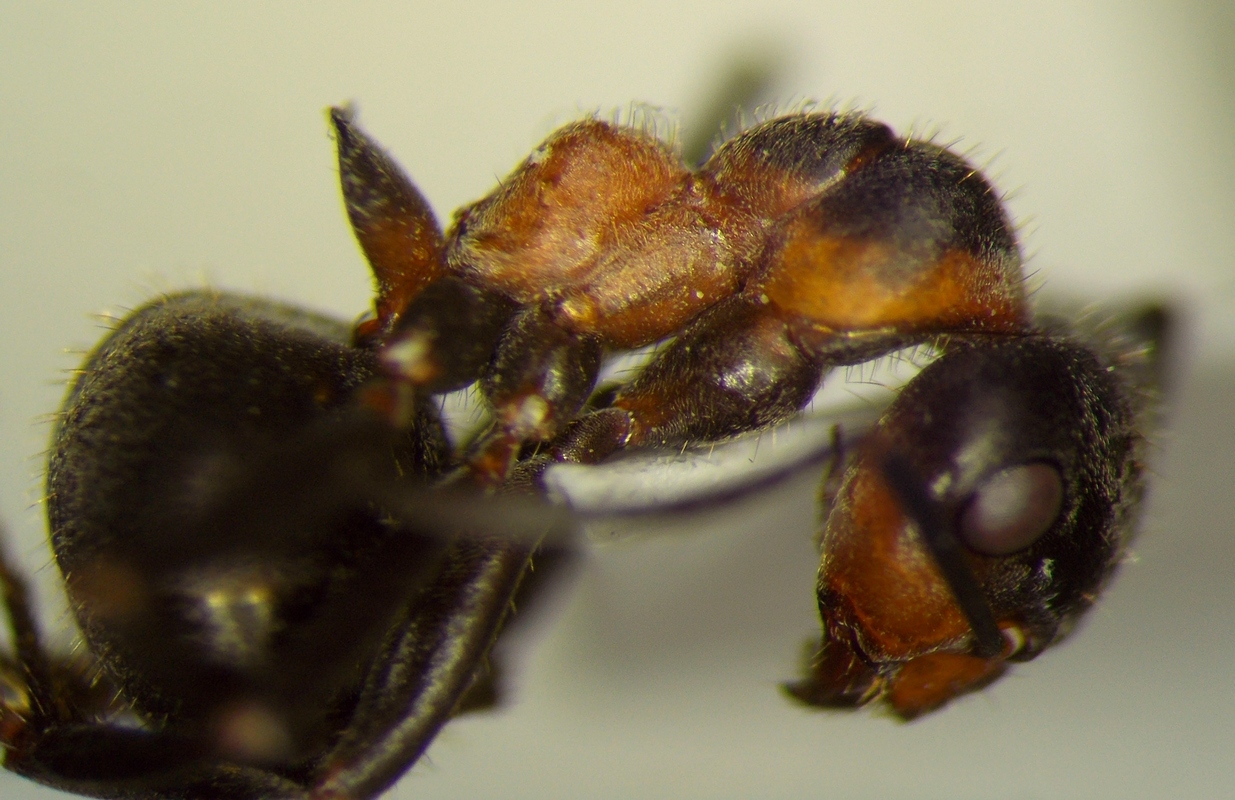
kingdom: Animalia
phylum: Arthropoda
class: Insecta
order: Hymenoptera
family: Formicidae
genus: Formica
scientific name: Formica pratensis
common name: European red wood ant
